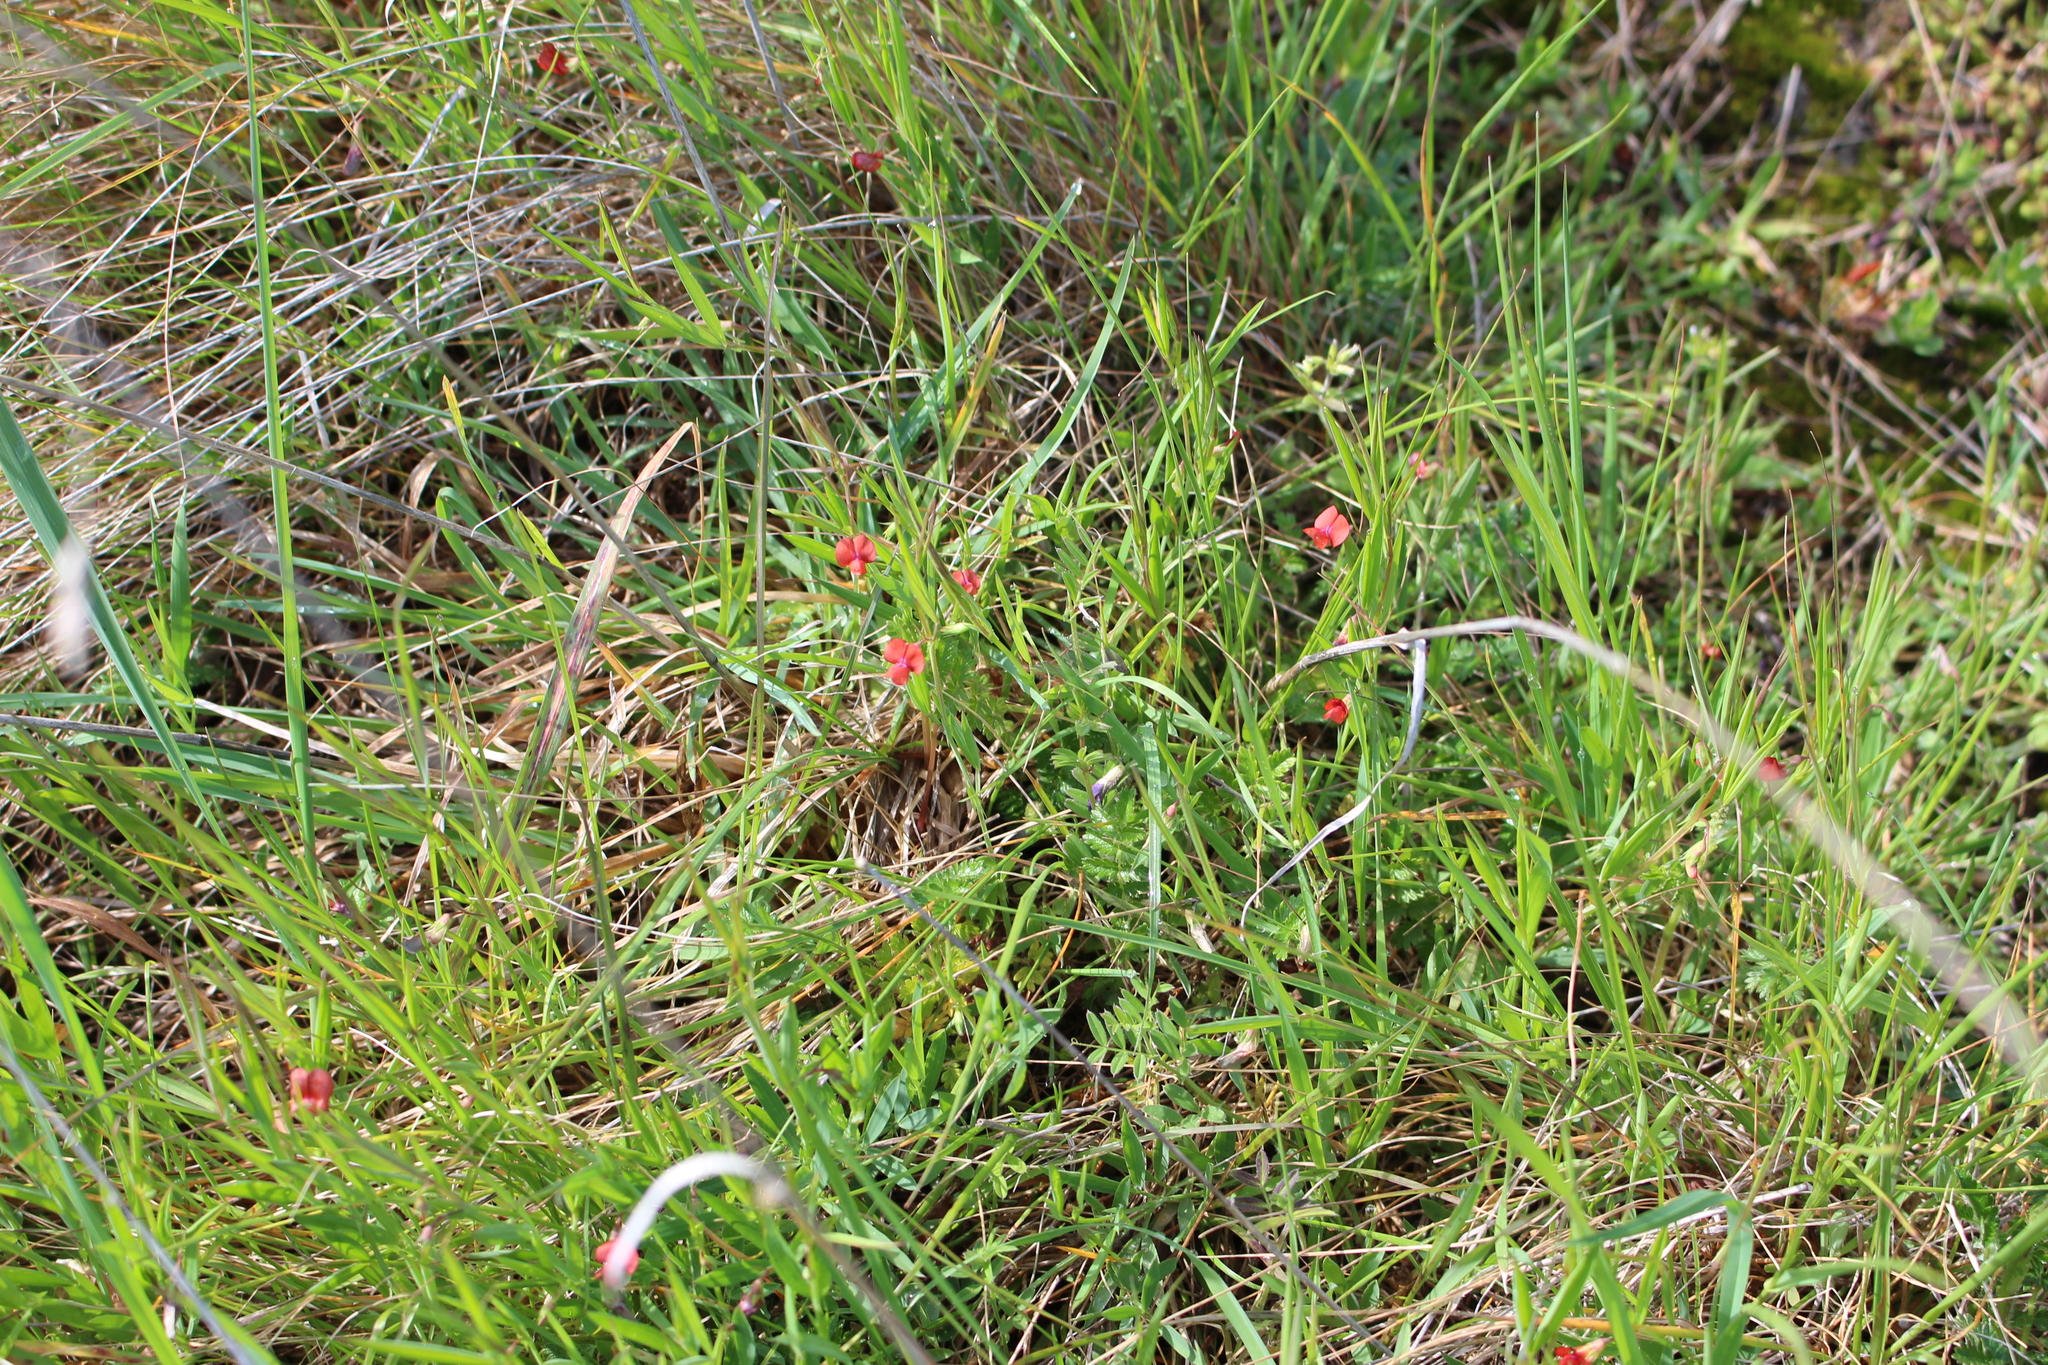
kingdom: Plantae
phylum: Tracheophyta
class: Magnoliopsida
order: Fabales
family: Fabaceae
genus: Lathyrus
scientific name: Lathyrus sphaericus
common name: Grass pea
